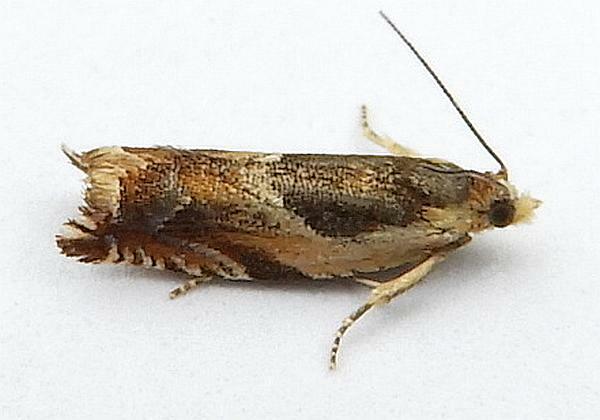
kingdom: Animalia
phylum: Arthropoda
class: Insecta
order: Lepidoptera
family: Tortricidae
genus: Ancylis
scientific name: Ancylis metamelana
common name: Black-marked ancylis moth
